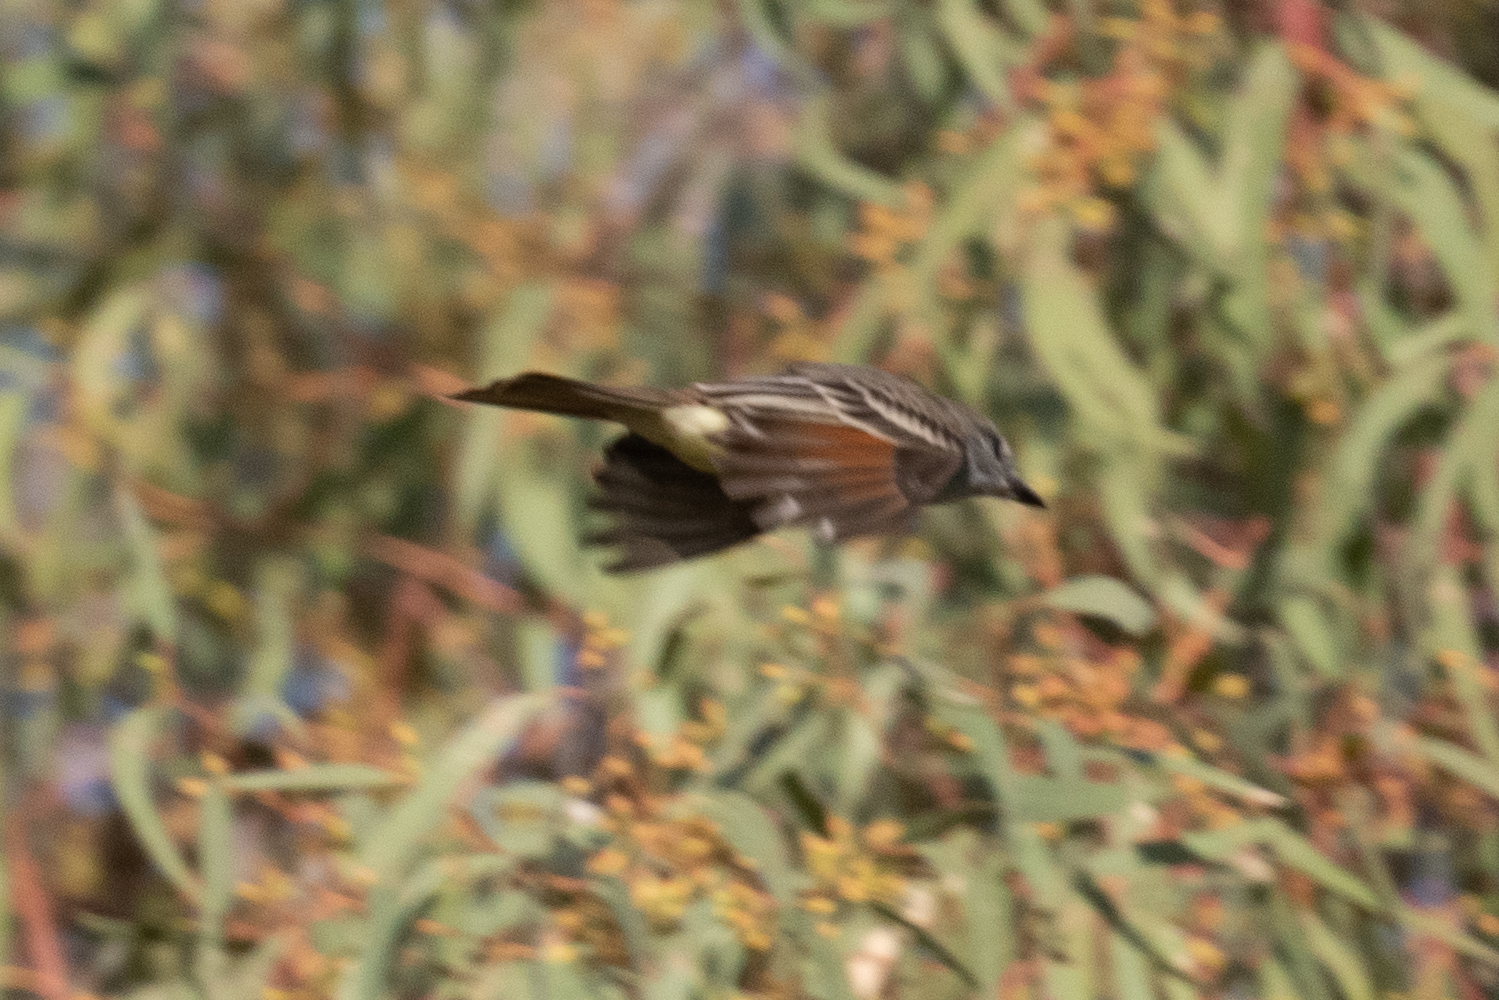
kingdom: Animalia
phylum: Chordata
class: Aves
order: Passeriformes
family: Tyrannidae
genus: Myiarchus
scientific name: Myiarchus cinerascens
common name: Ash-throated flycatcher
